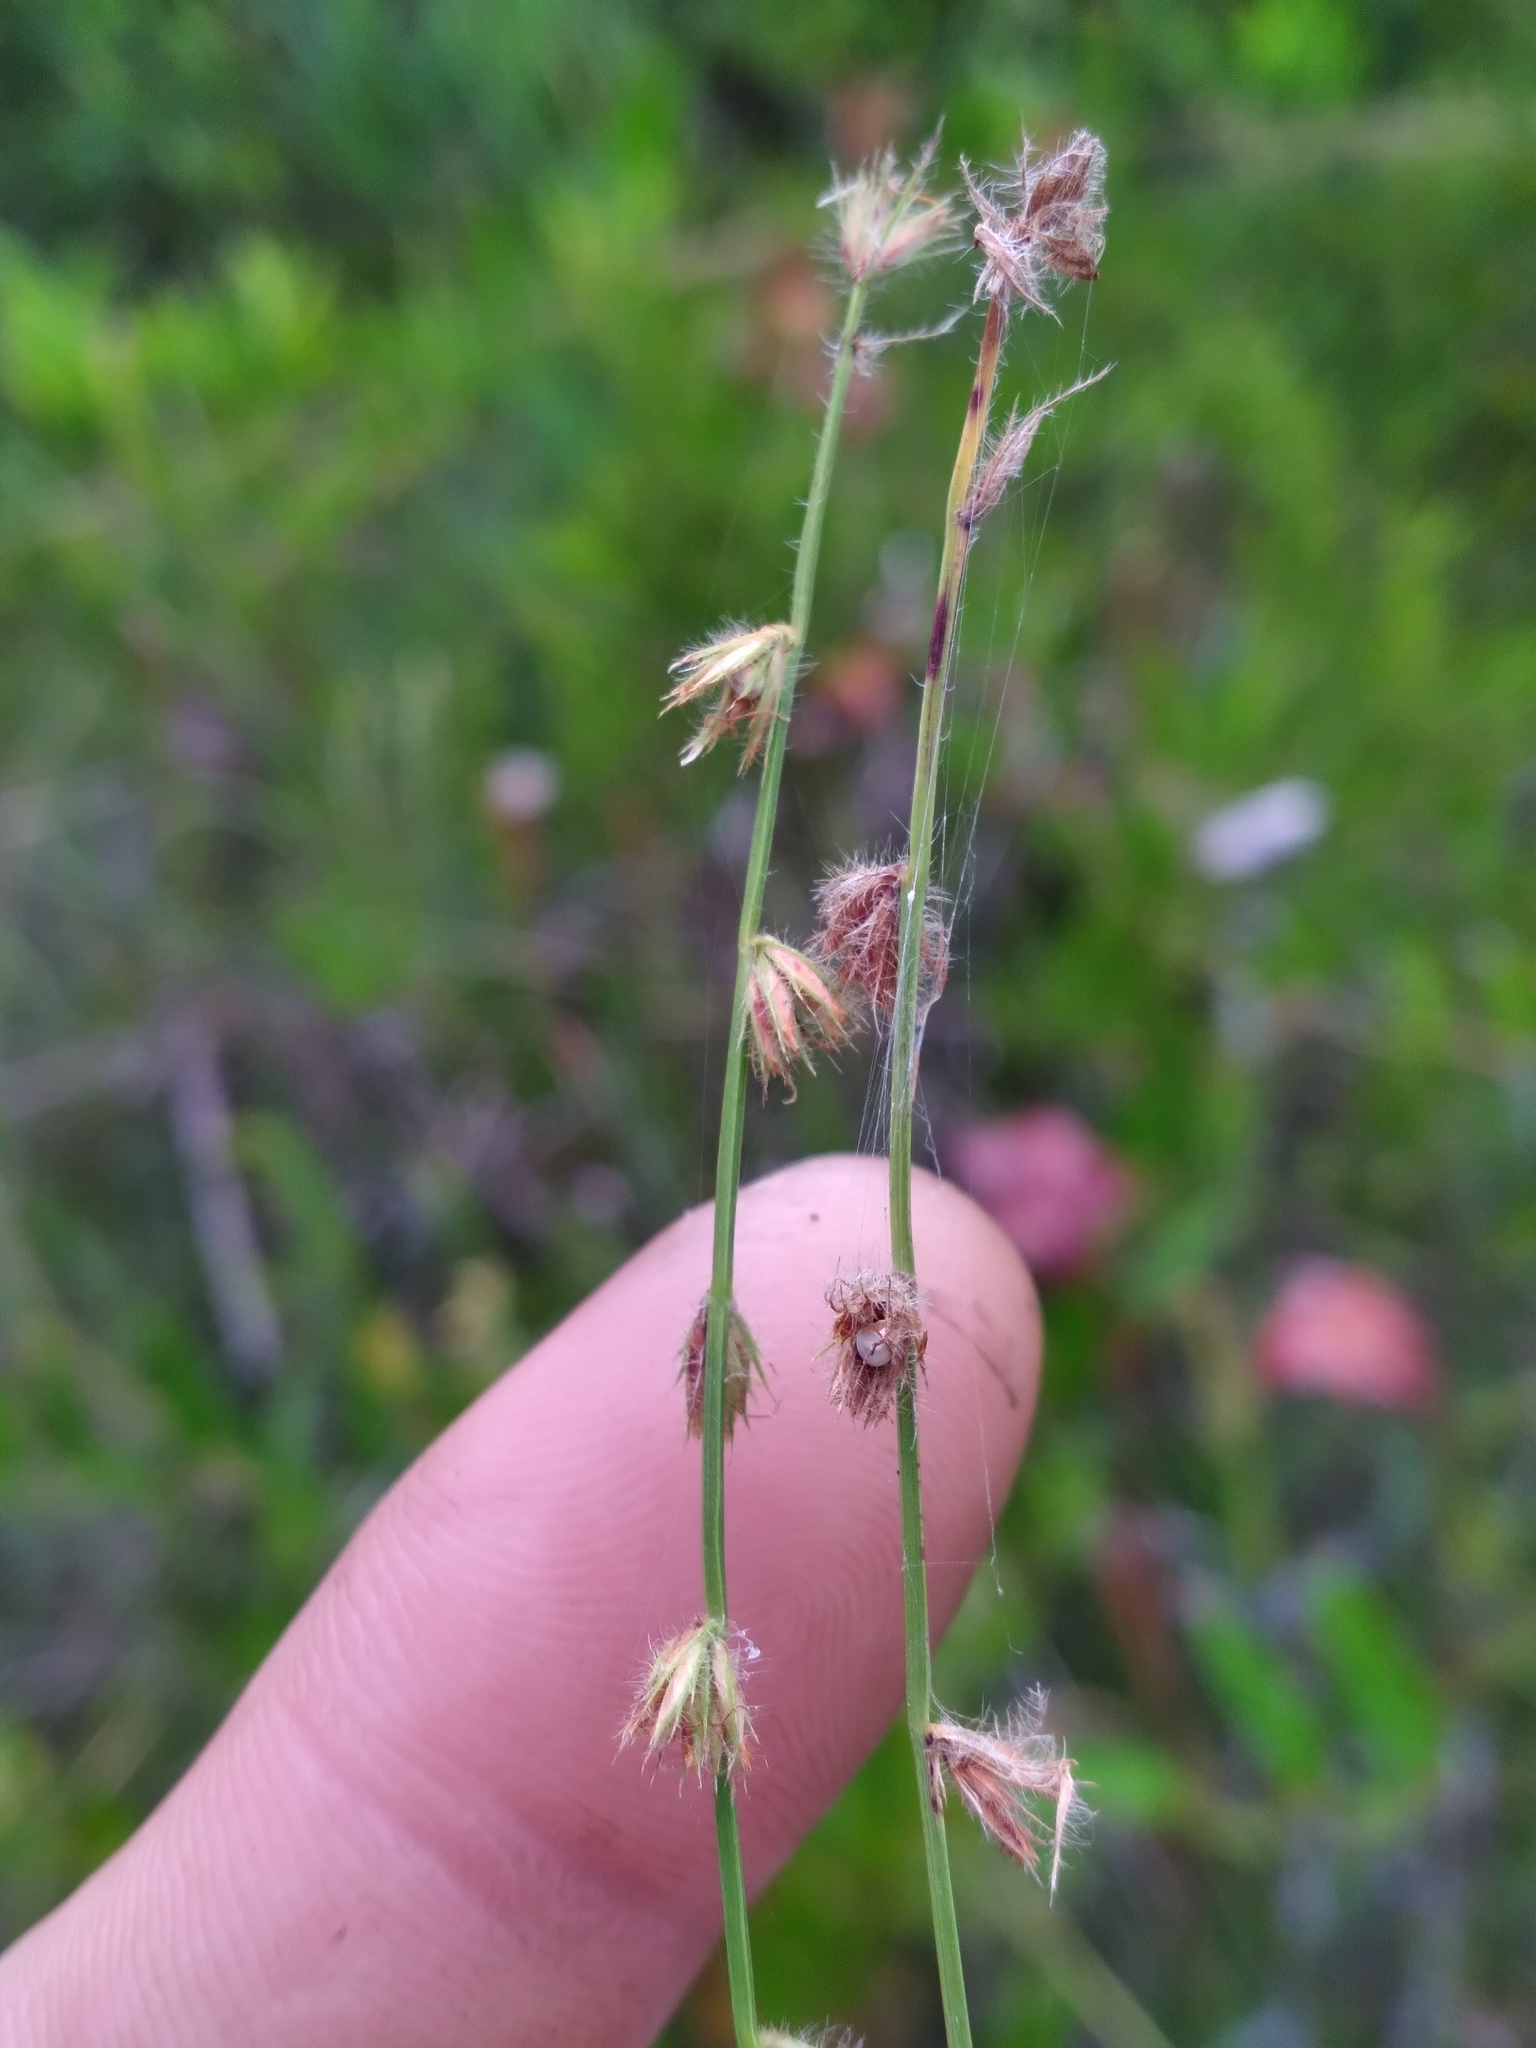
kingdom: Plantae
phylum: Tracheophyta
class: Liliopsida
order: Poales
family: Cyperaceae
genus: Scleria
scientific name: Scleria distans
